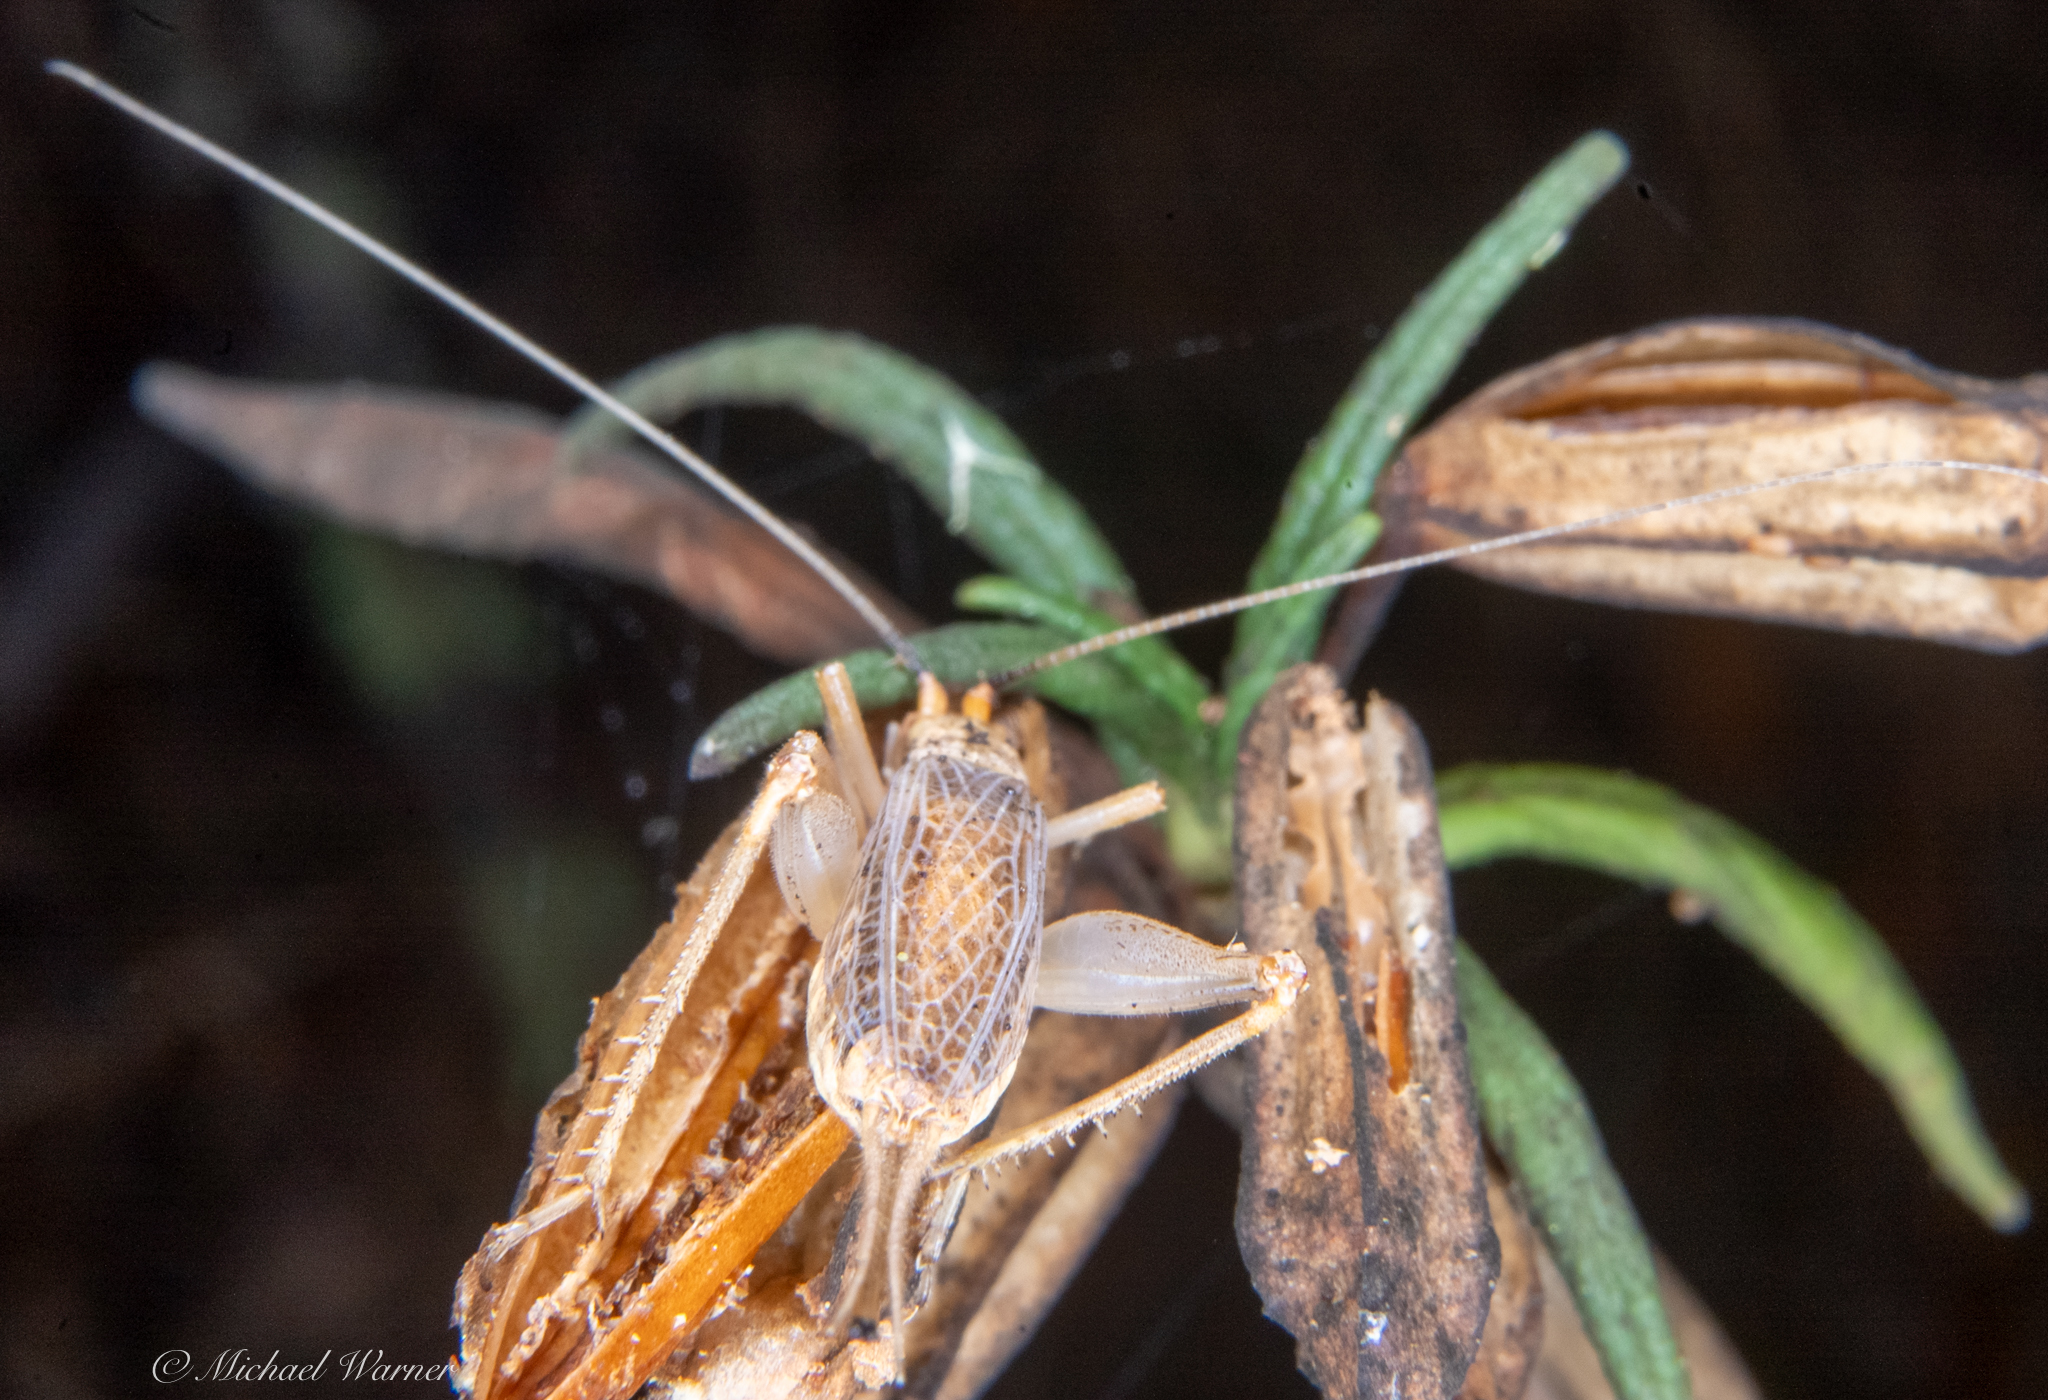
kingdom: Animalia
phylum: Arthropoda
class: Insecta
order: Orthoptera
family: Gryllidae
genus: Oecanthus
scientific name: Oecanthus californicus
